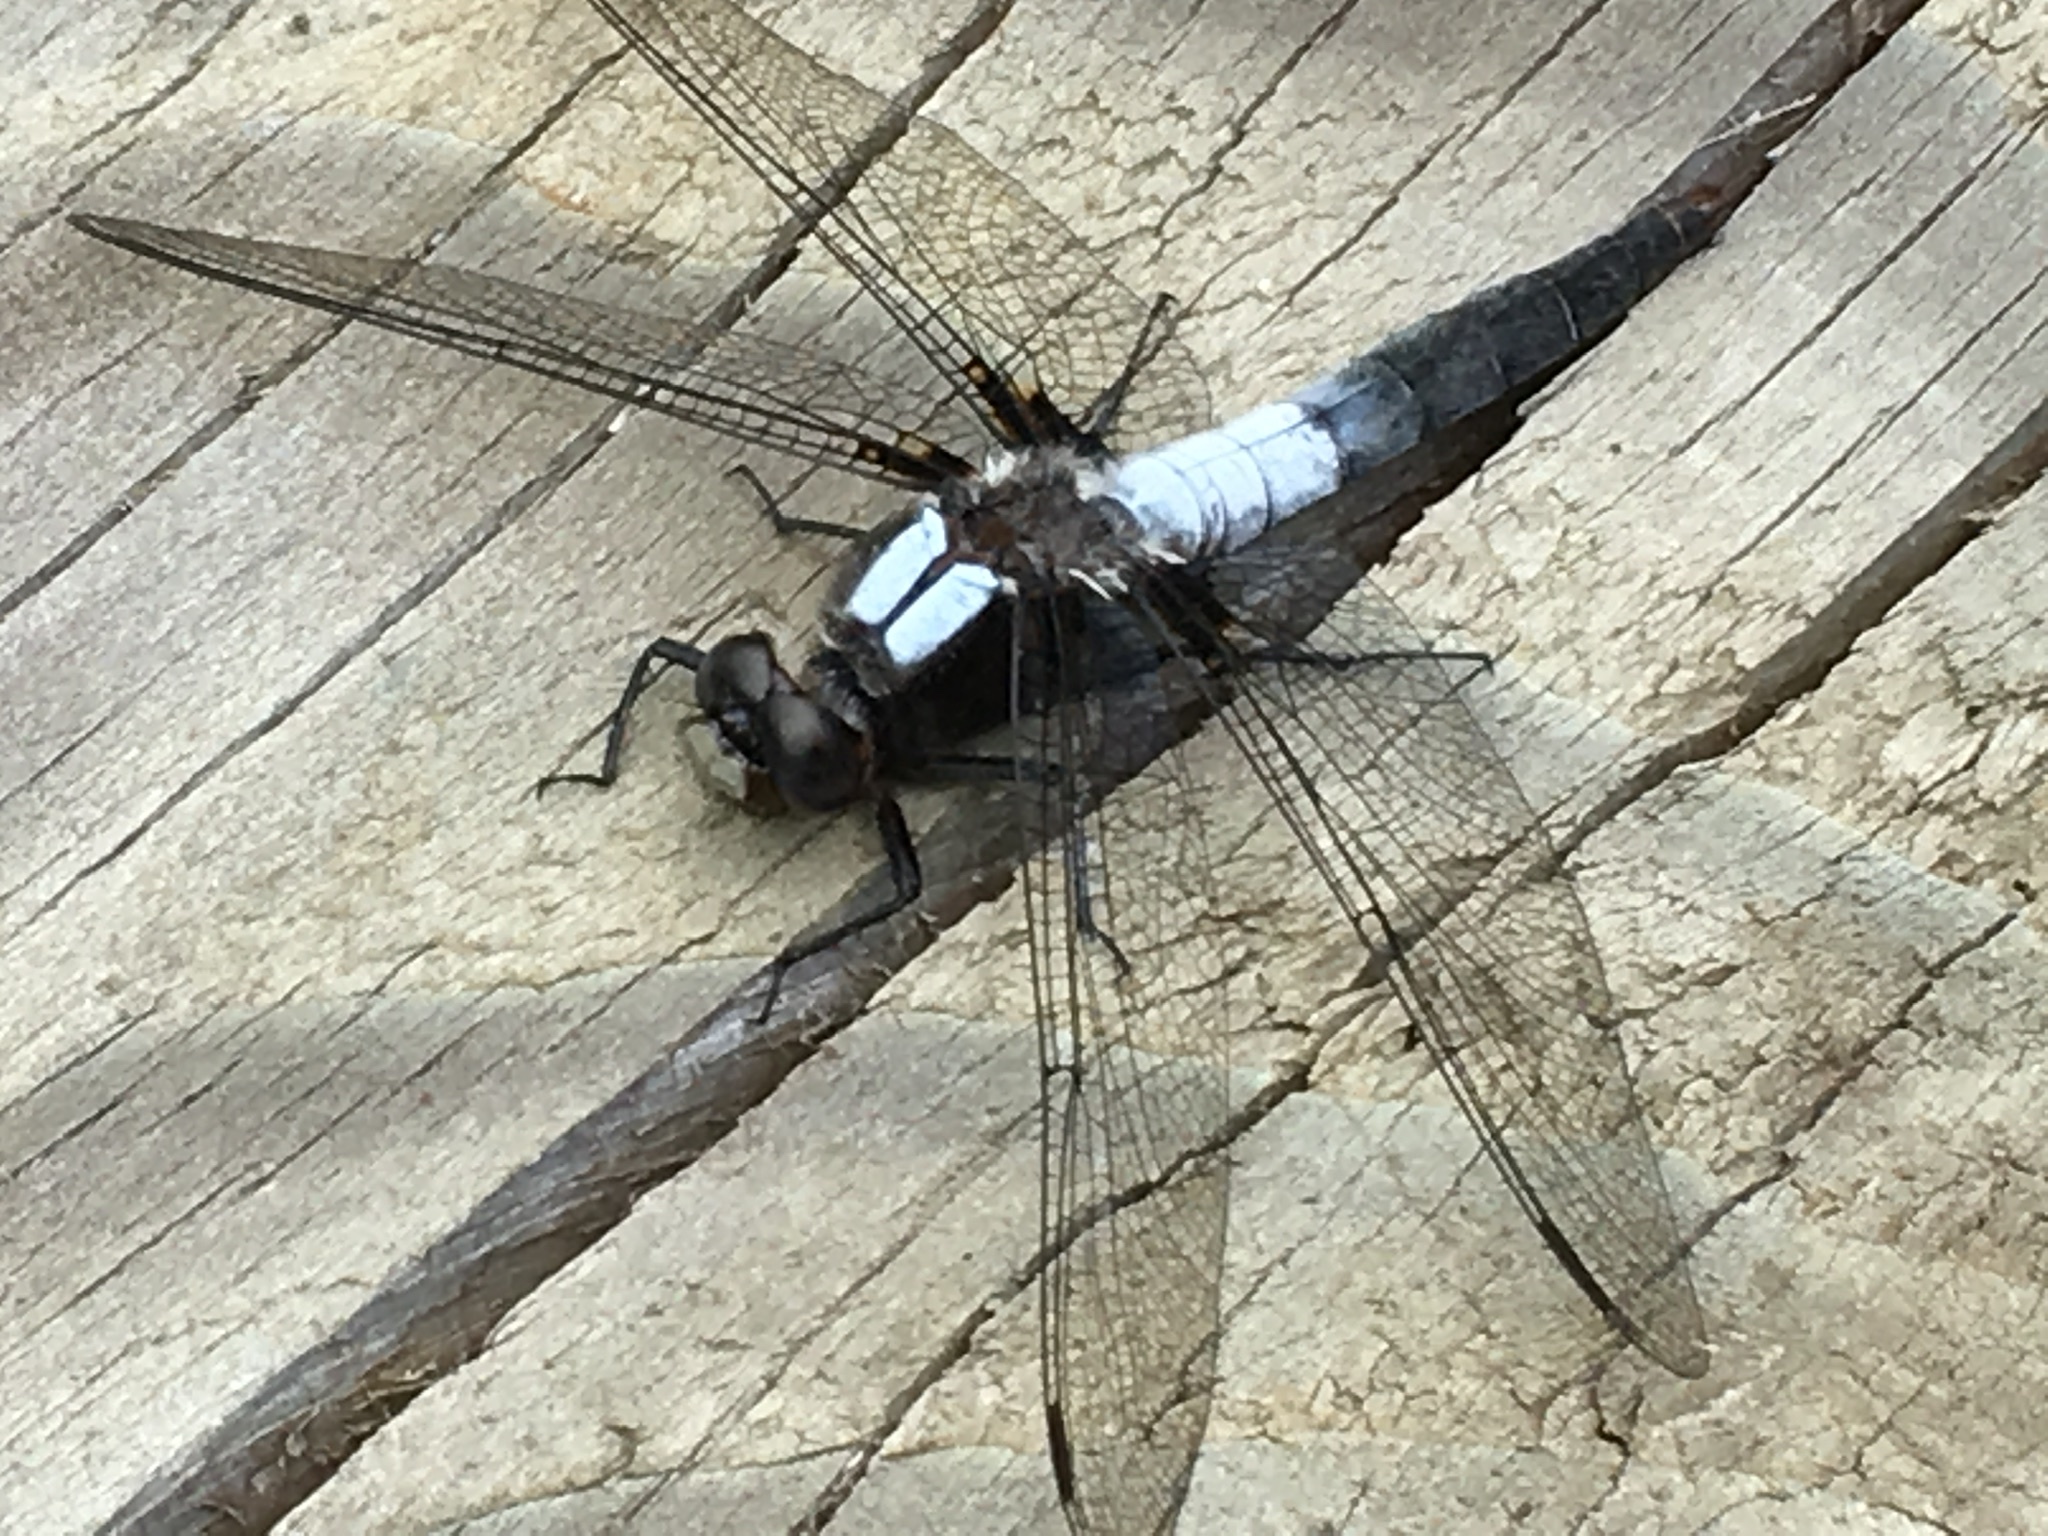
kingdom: Animalia
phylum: Arthropoda
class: Insecta
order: Odonata
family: Libellulidae
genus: Ladona
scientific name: Ladona julia
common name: Chalk-fronted corporal
